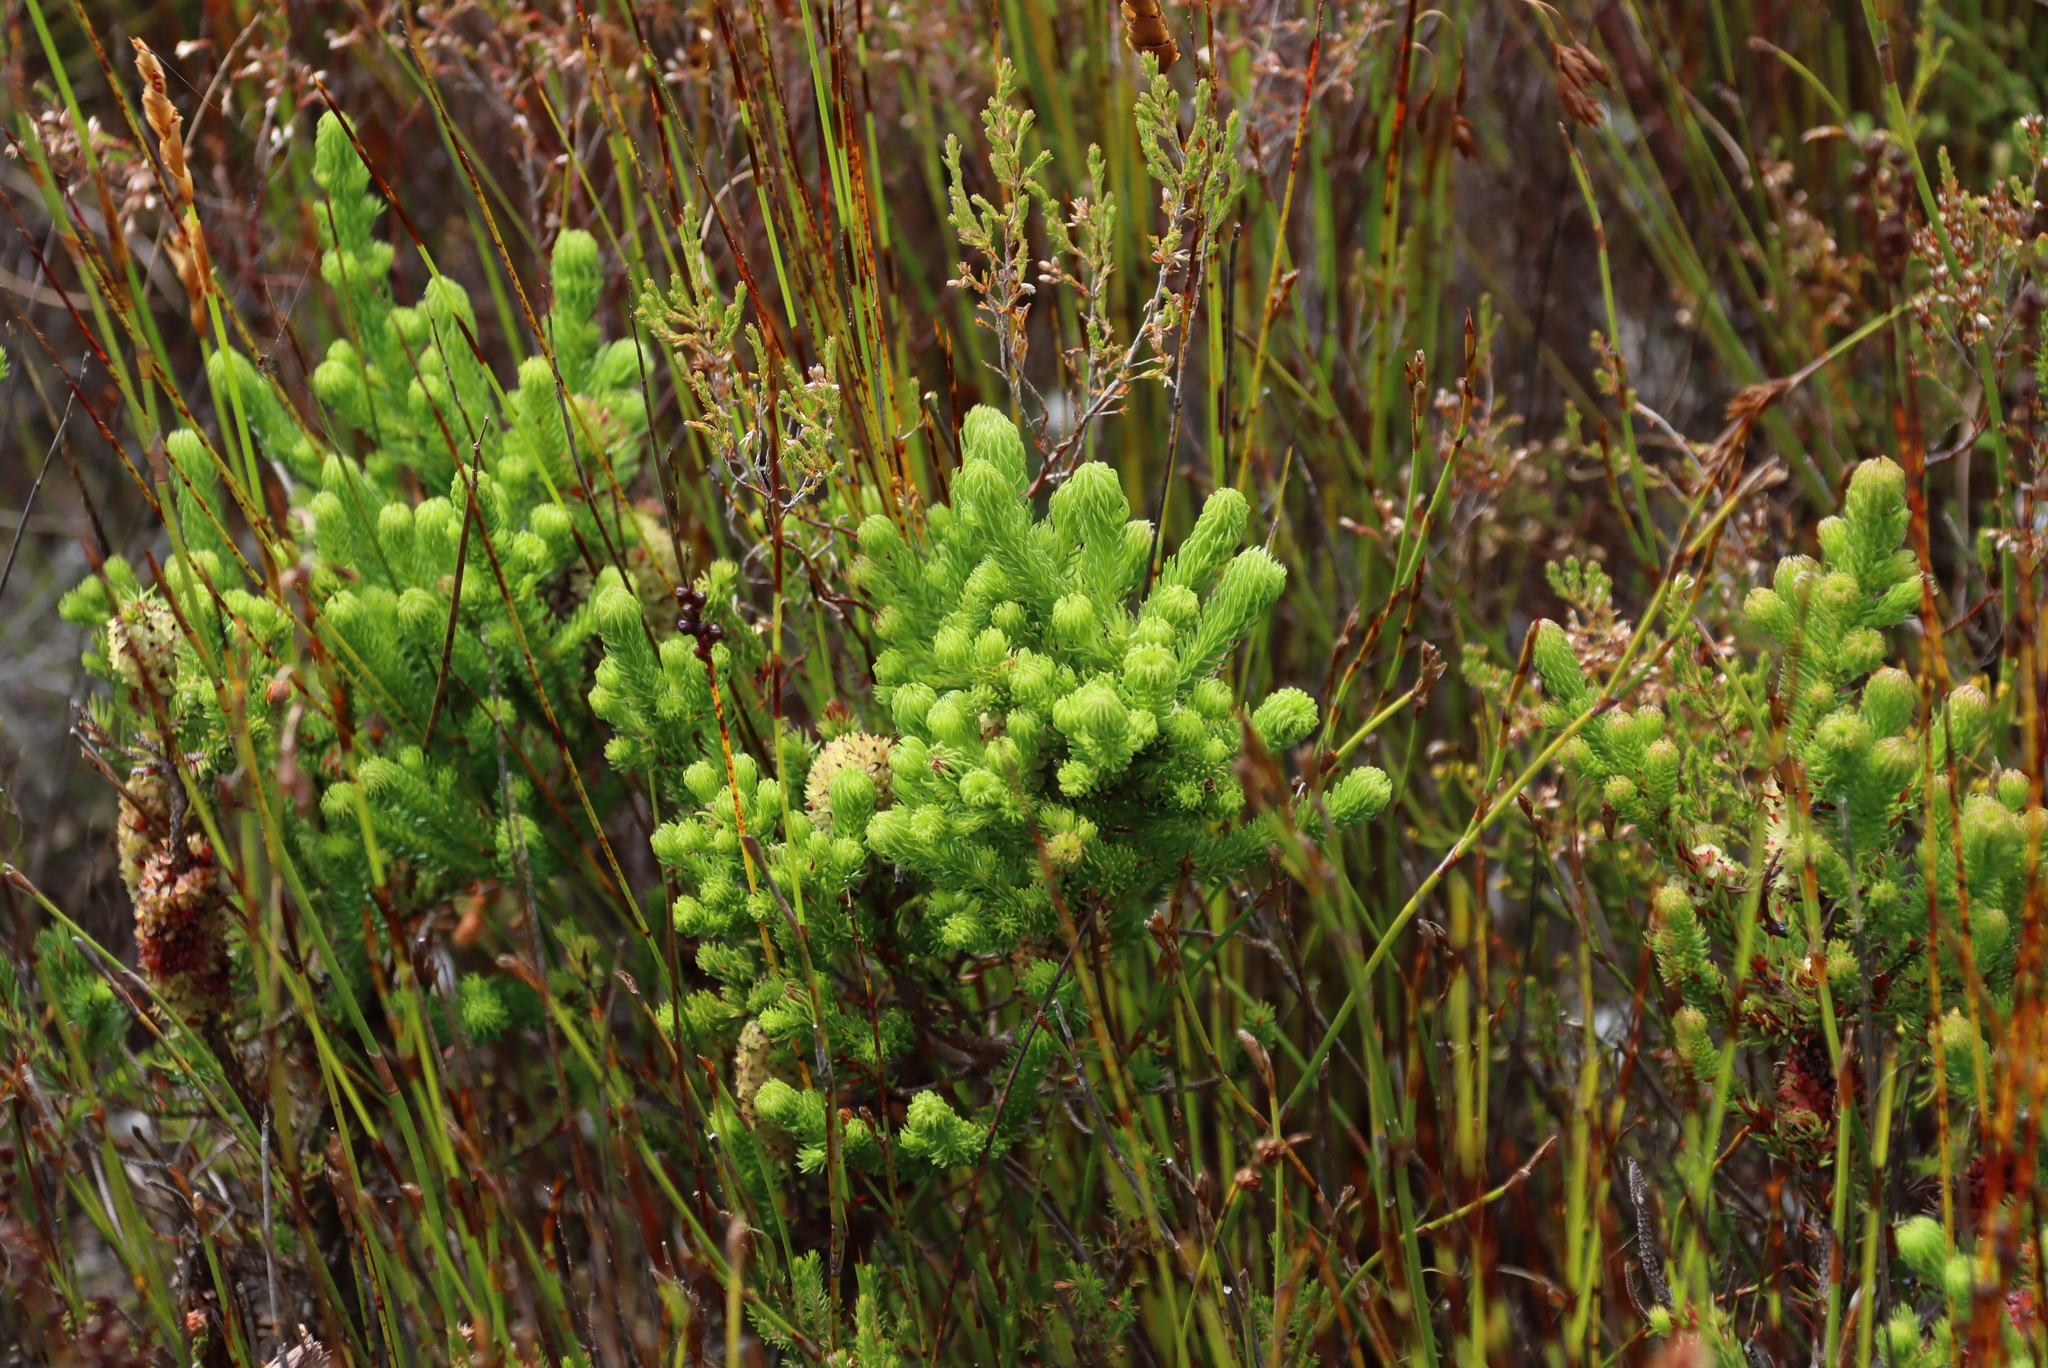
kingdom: Plantae
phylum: Tracheophyta
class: Magnoliopsida
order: Ericales
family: Ericaceae
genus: Erica
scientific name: Erica sessiliflora
